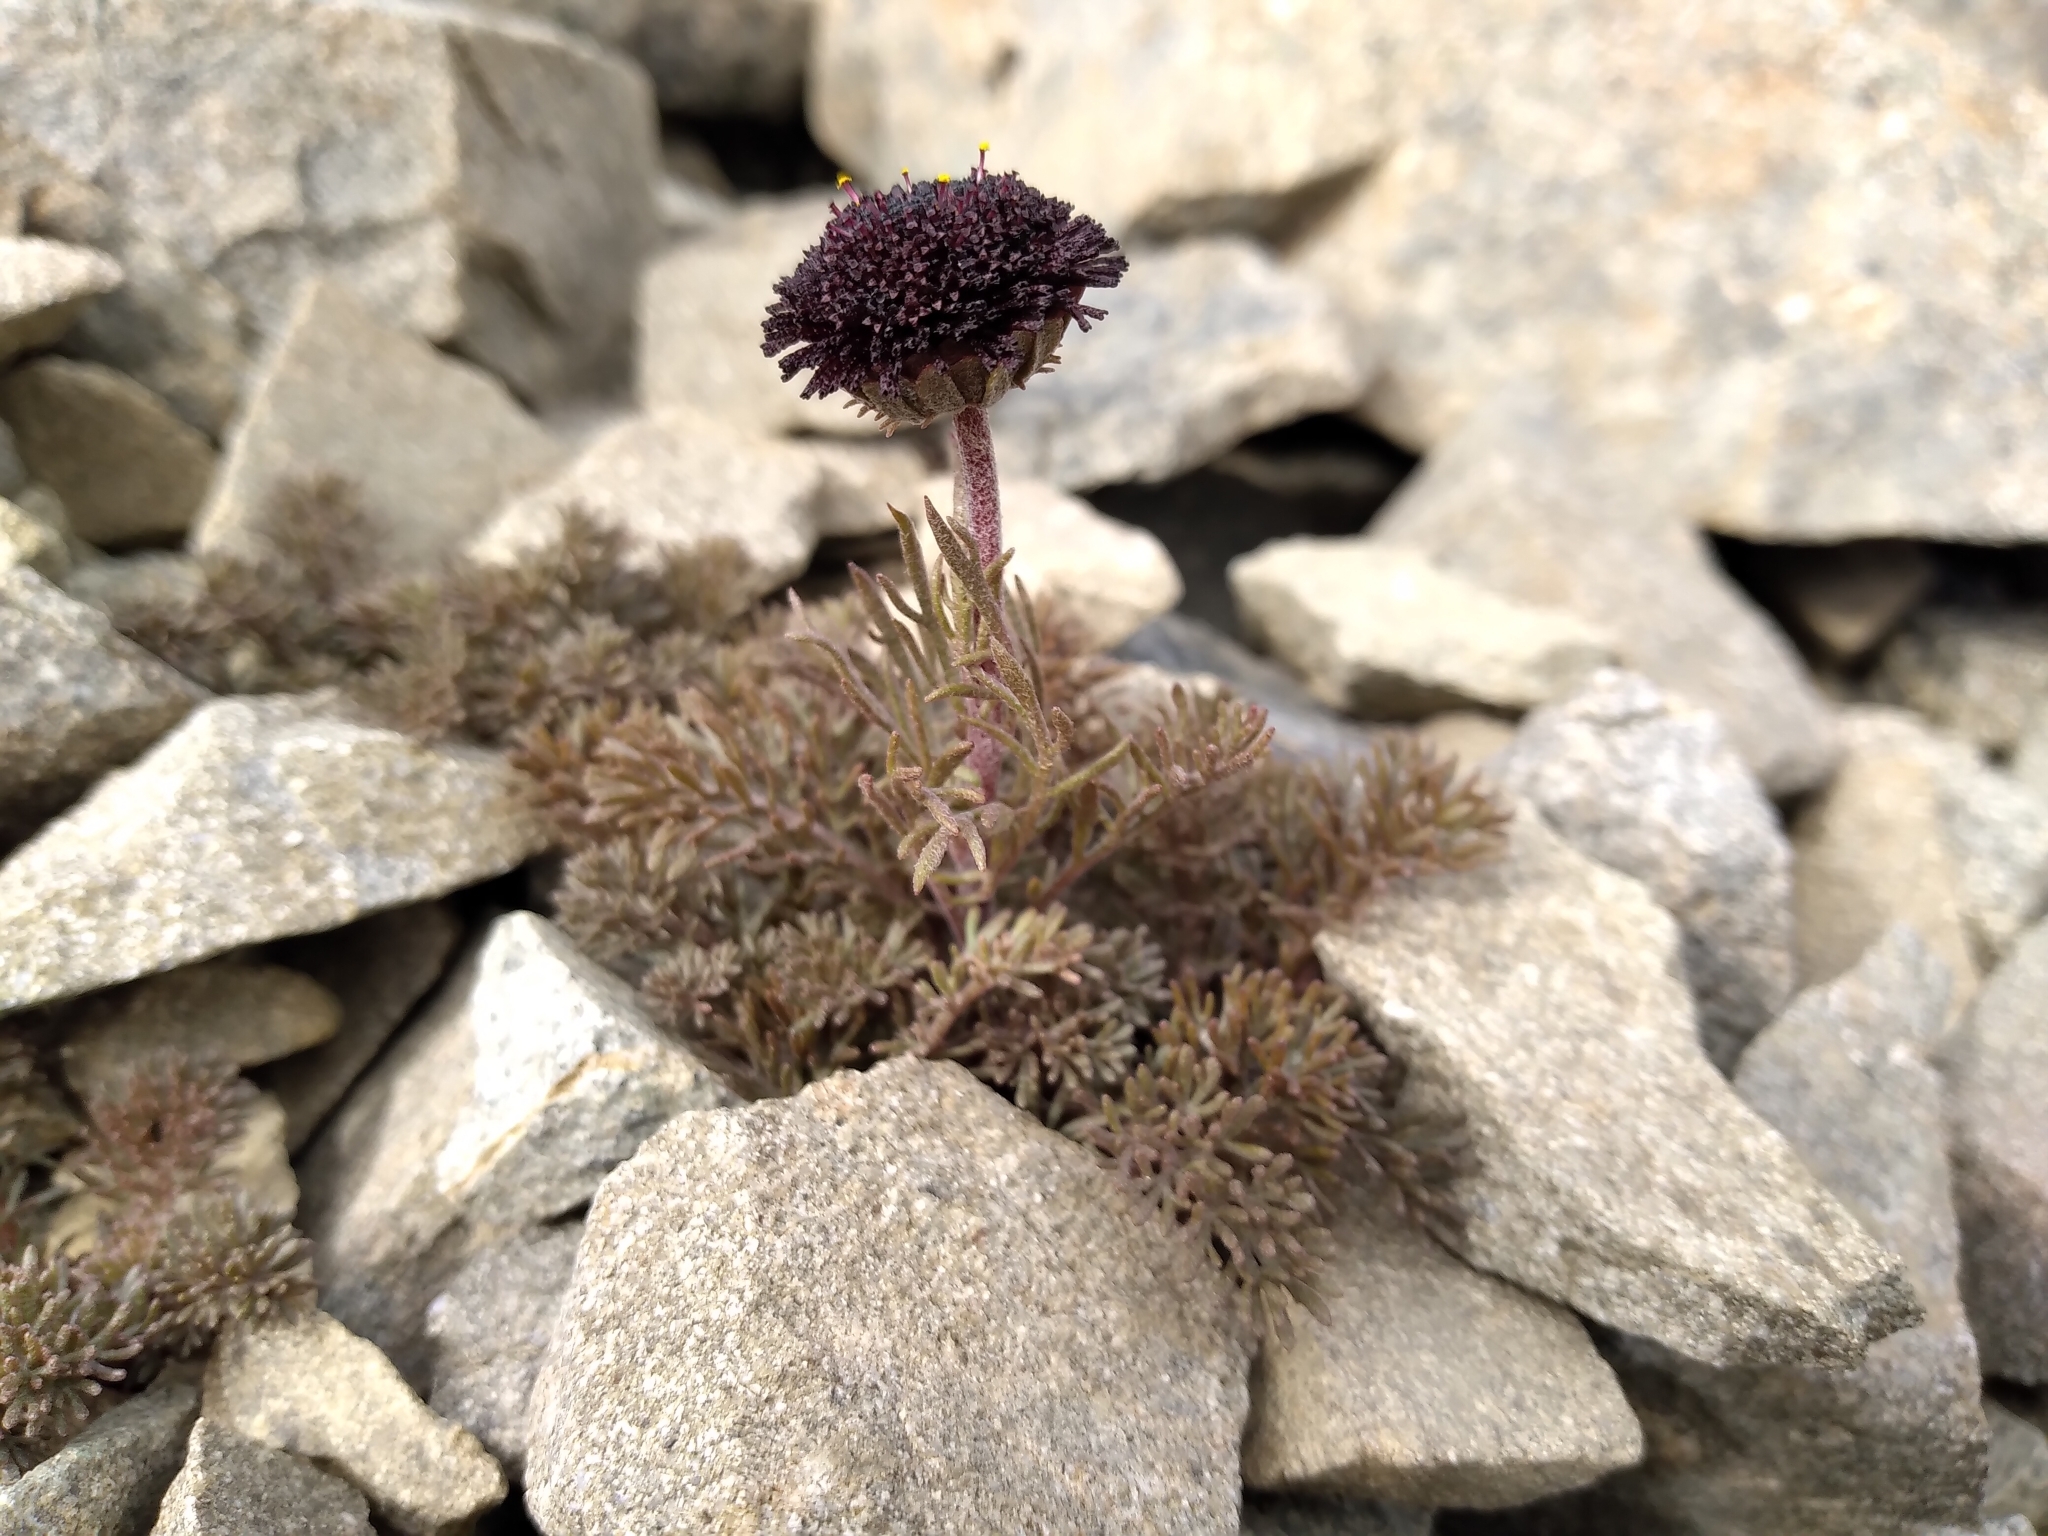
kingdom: Plantae
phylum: Tracheophyta
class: Magnoliopsida
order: Asterales
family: Asteraceae
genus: Leptinella
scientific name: Leptinella atrata
